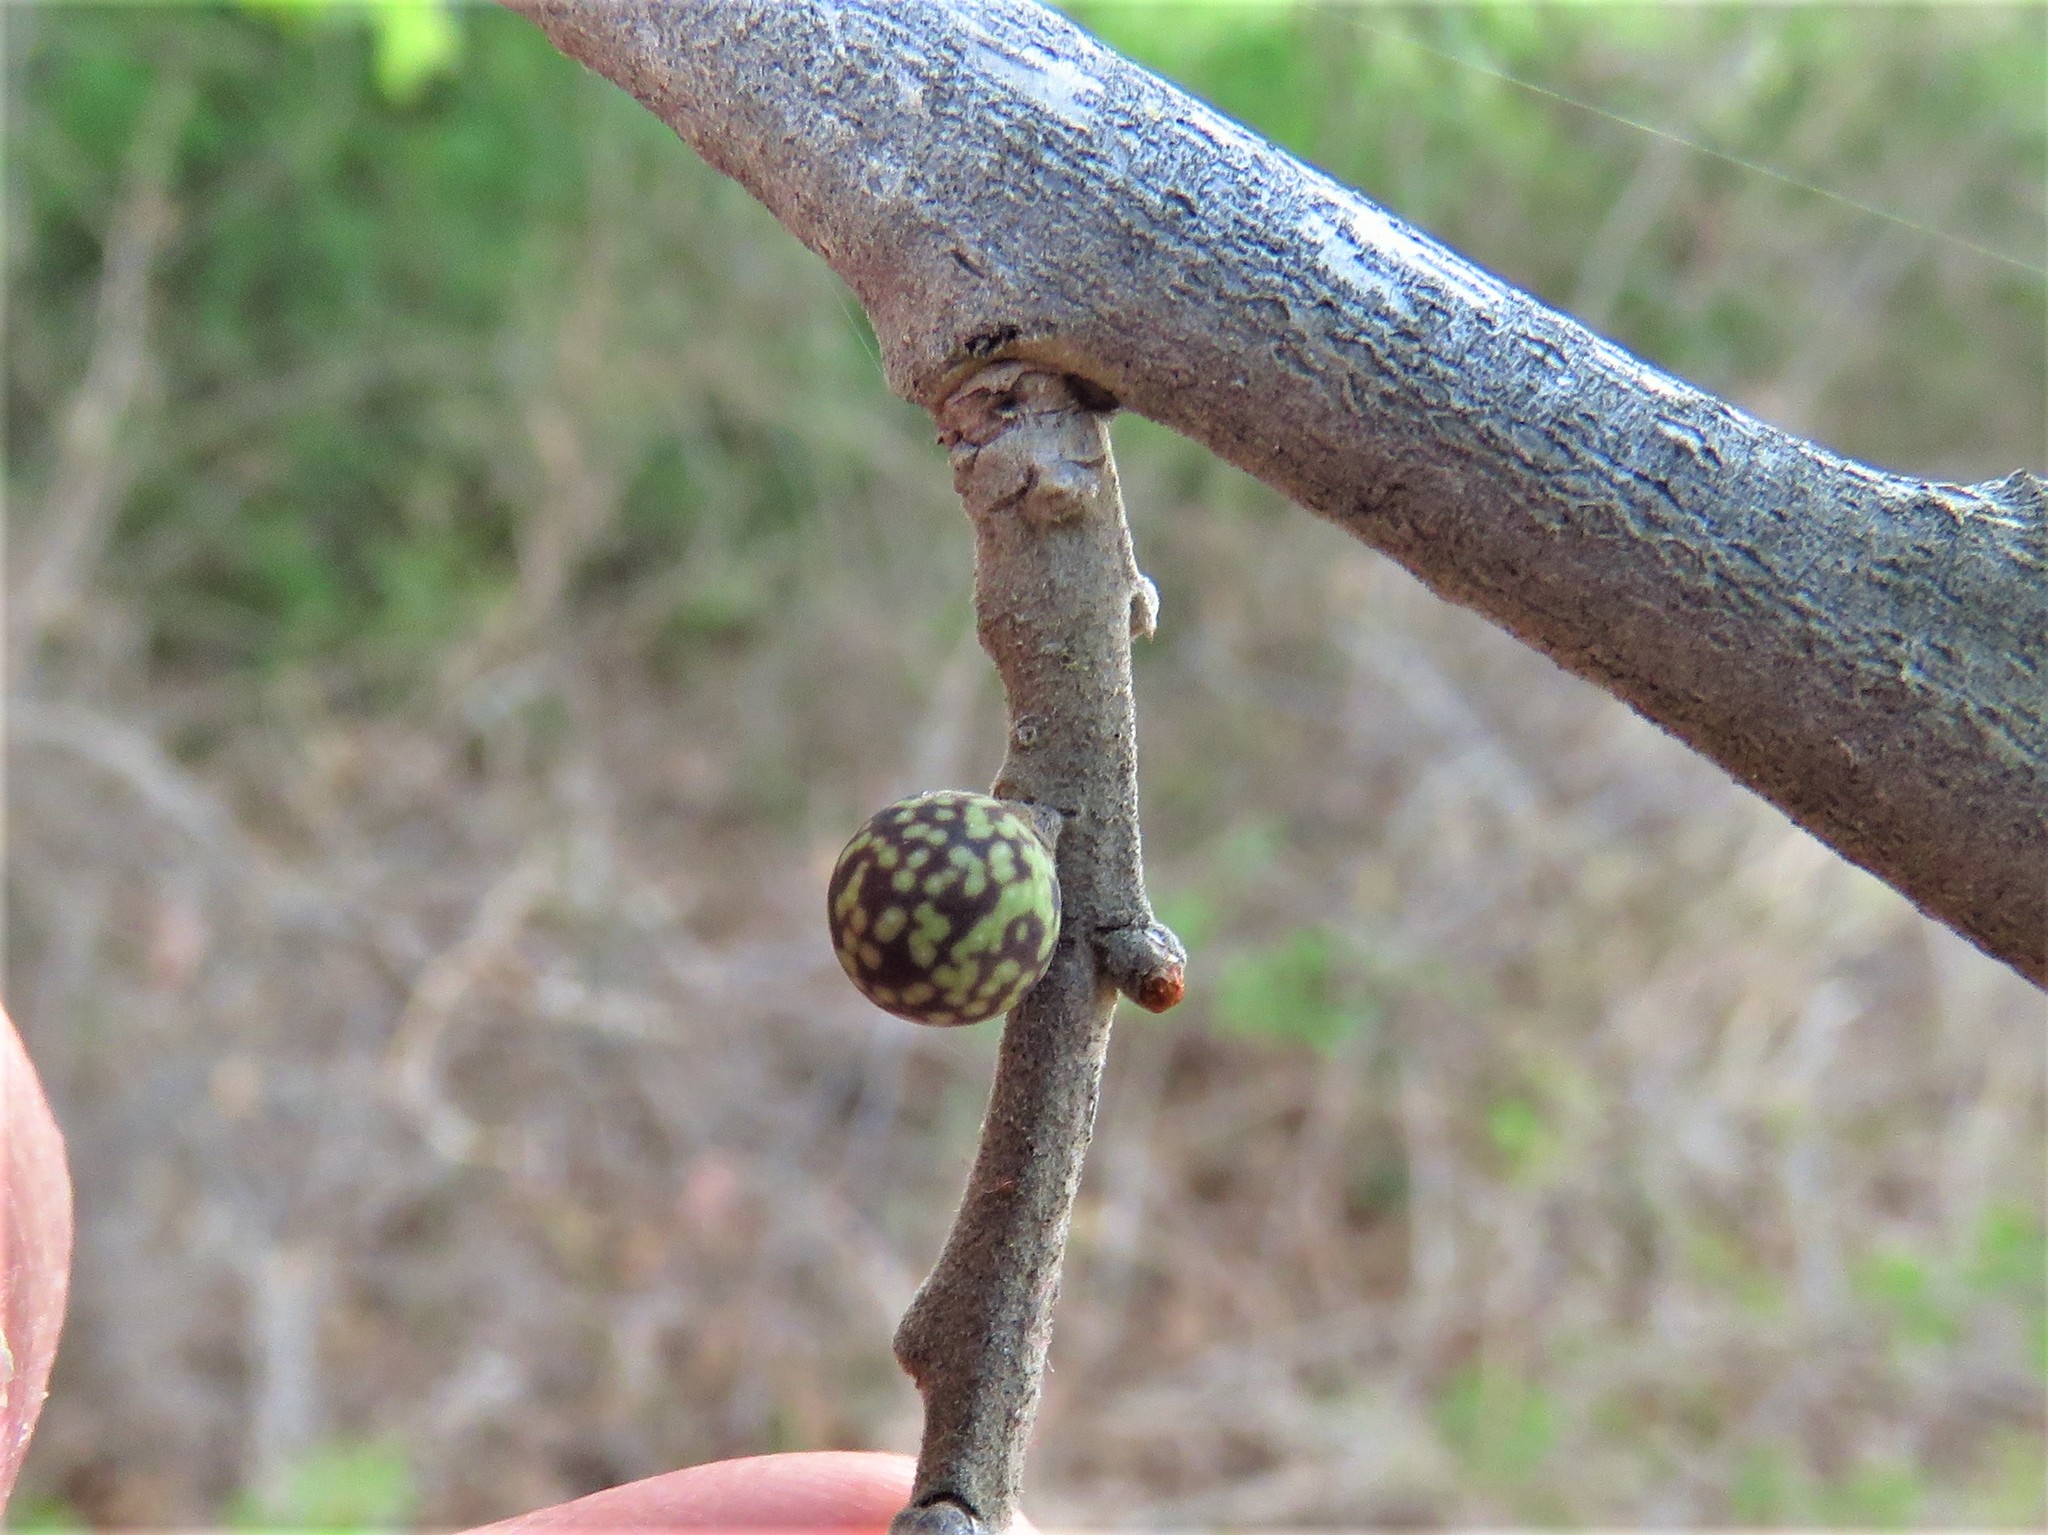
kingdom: Animalia
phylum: Arthropoda
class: Insecta
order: Hymenoptera
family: Cynipidae
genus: Andricus
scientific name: Andricus
